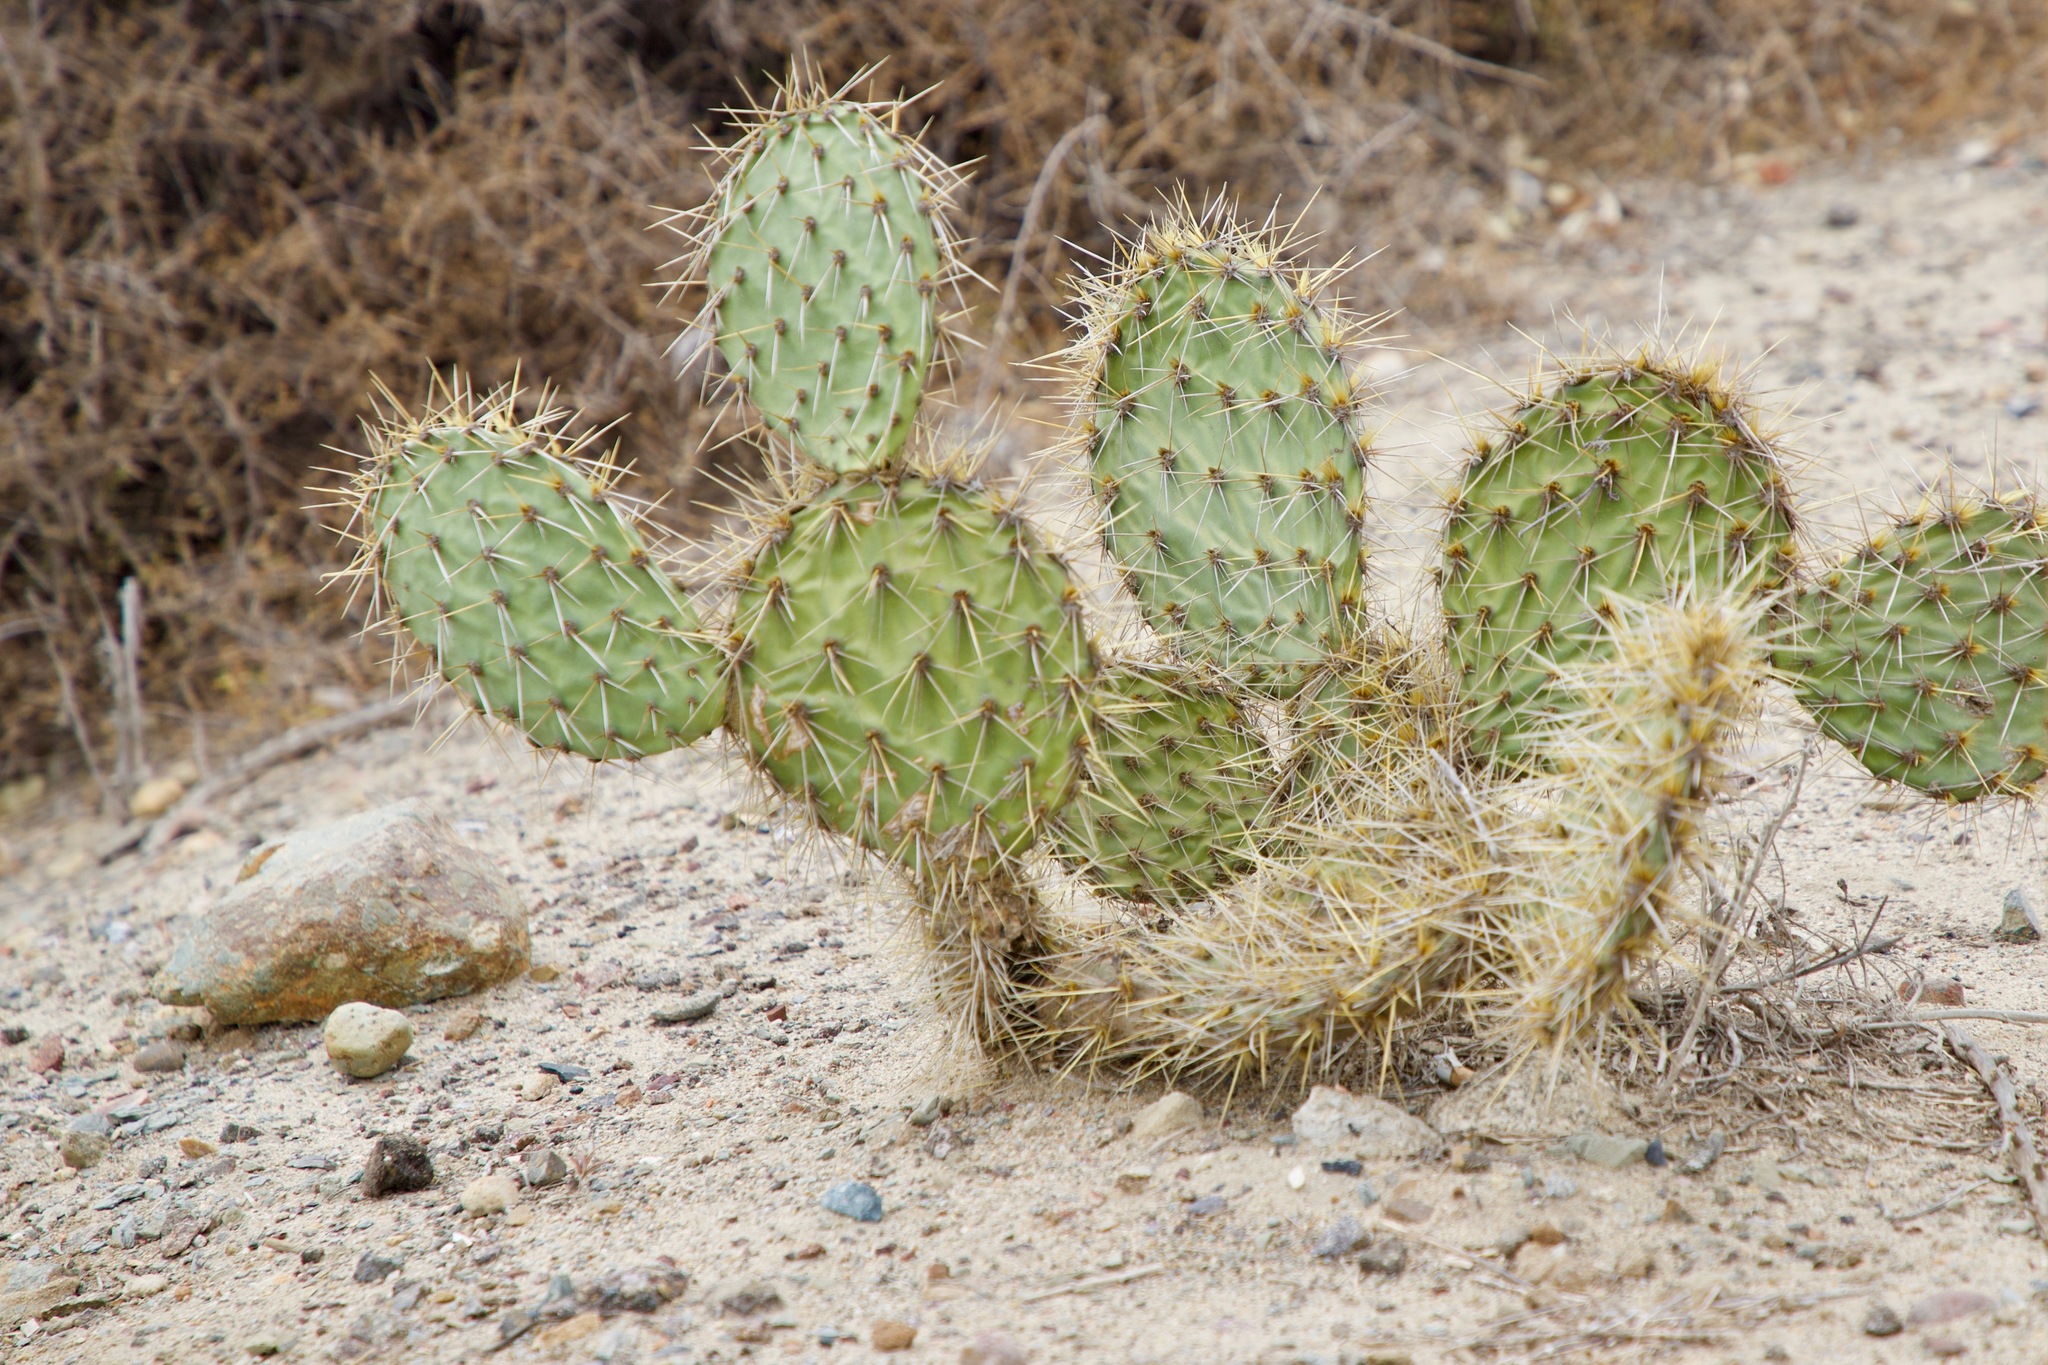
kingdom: Plantae
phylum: Tracheophyta
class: Magnoliopsida
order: Caryophyllales
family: Cactaceae
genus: Opuntia
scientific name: Opuntia littoralis
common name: Coastal prickly-pear
